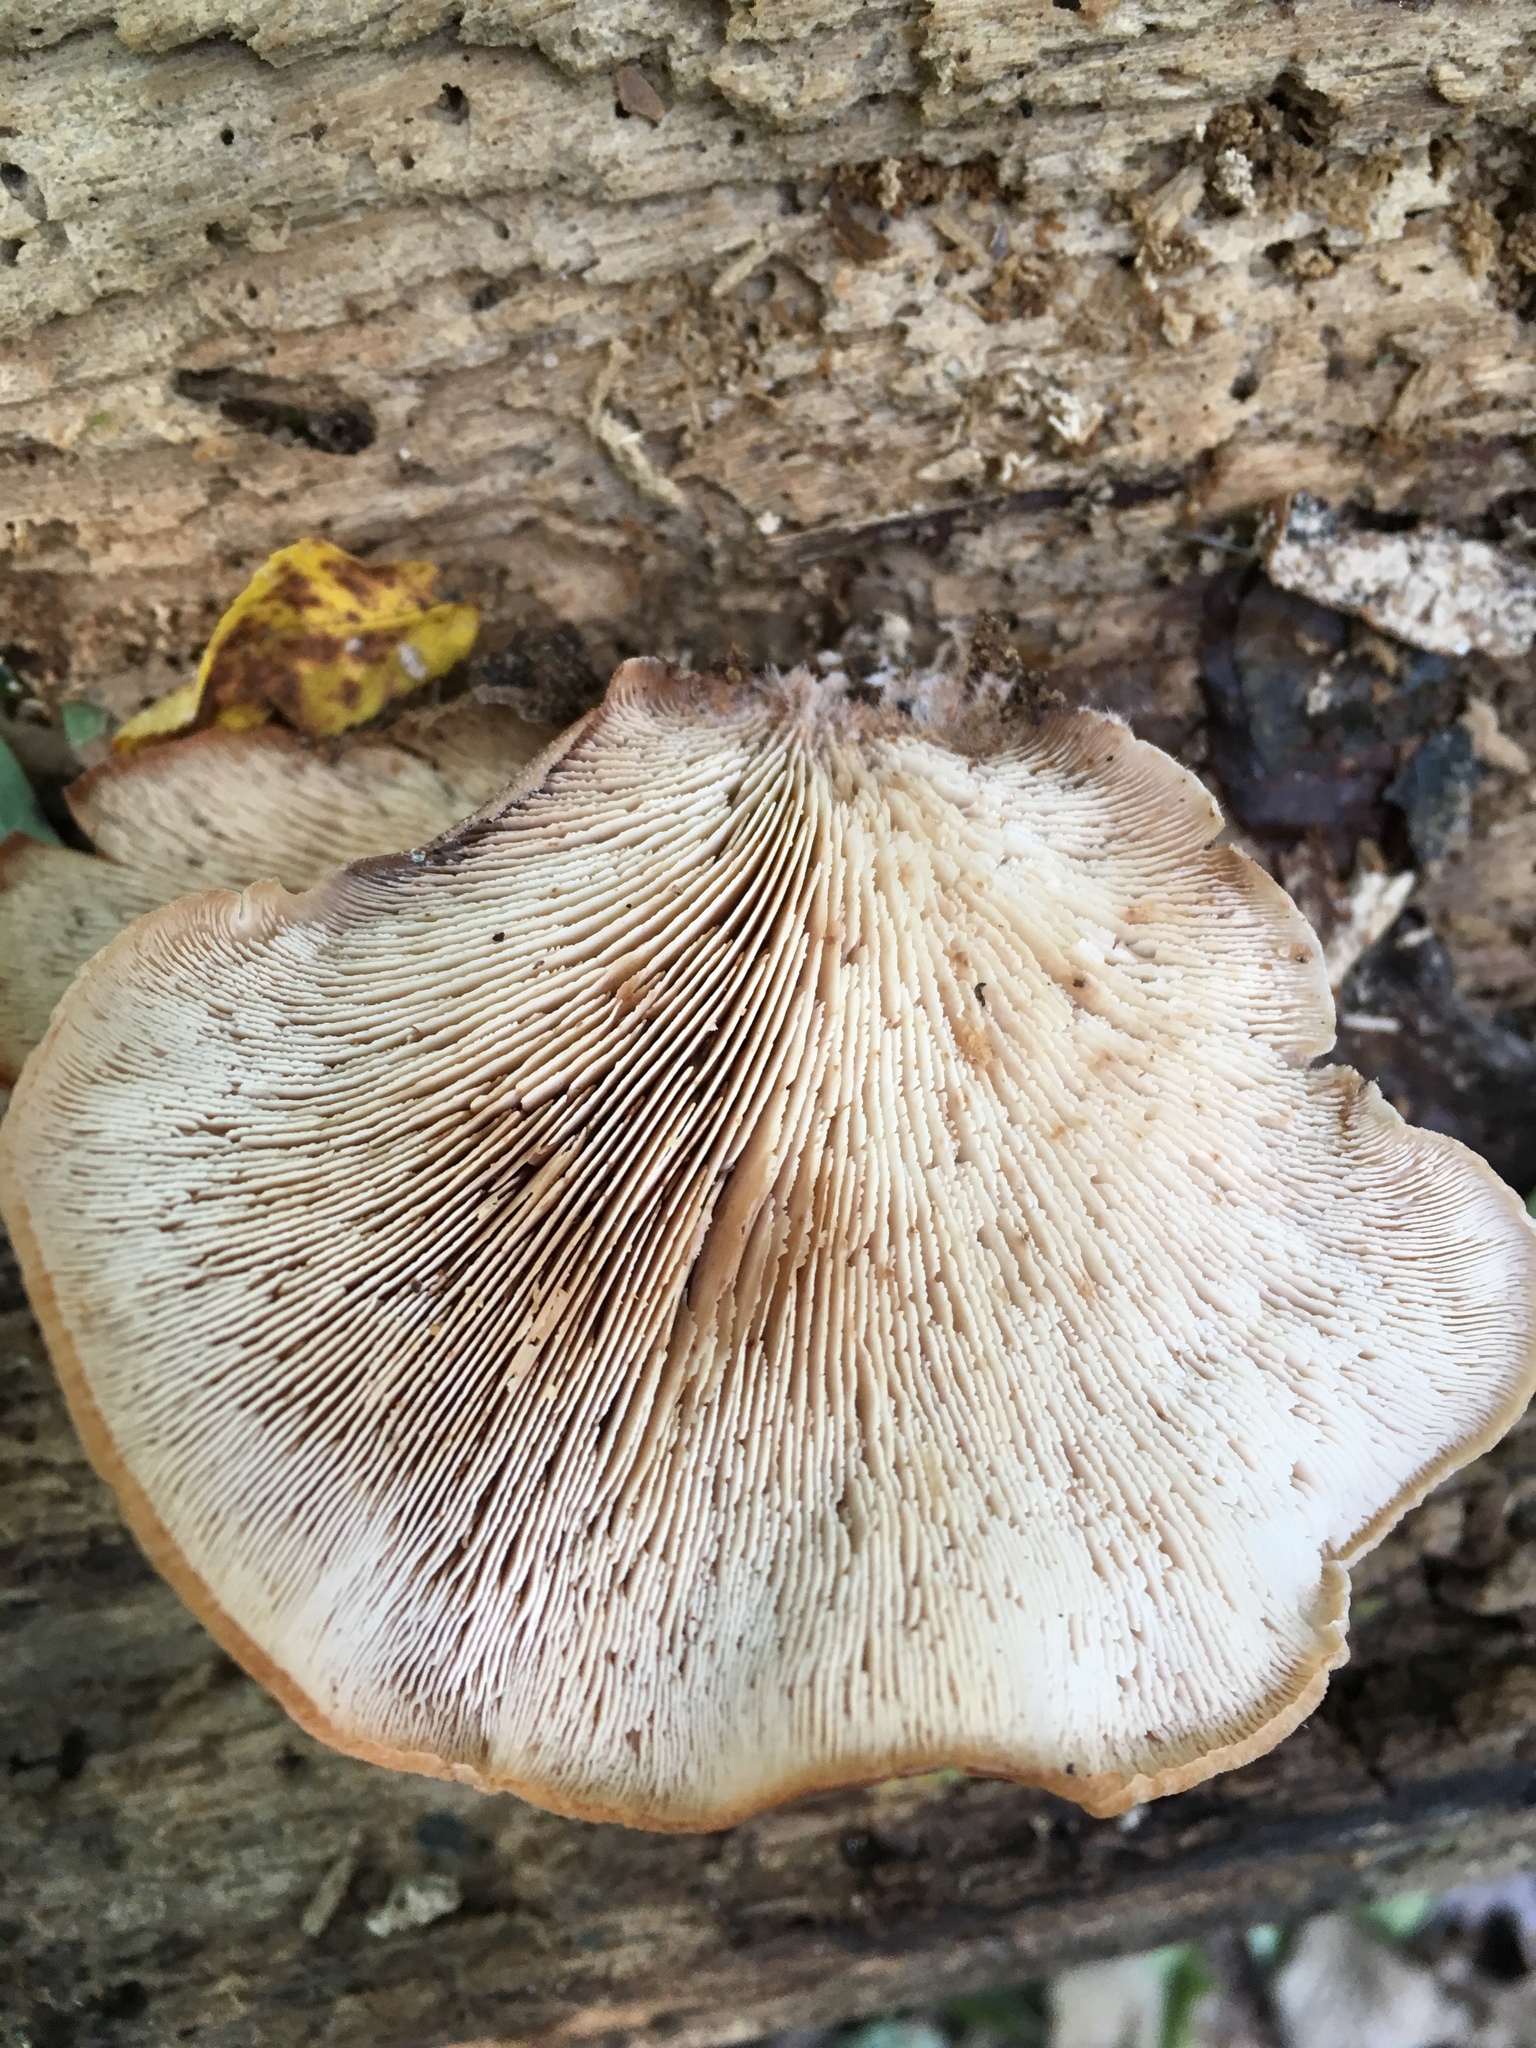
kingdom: Fungi
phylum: Basidiomycota
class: Agaricomycetes
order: Russulales
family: Auriscalpiaceae
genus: Lentinellus
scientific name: Lentinellus ursinus
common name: Bear lentinus
